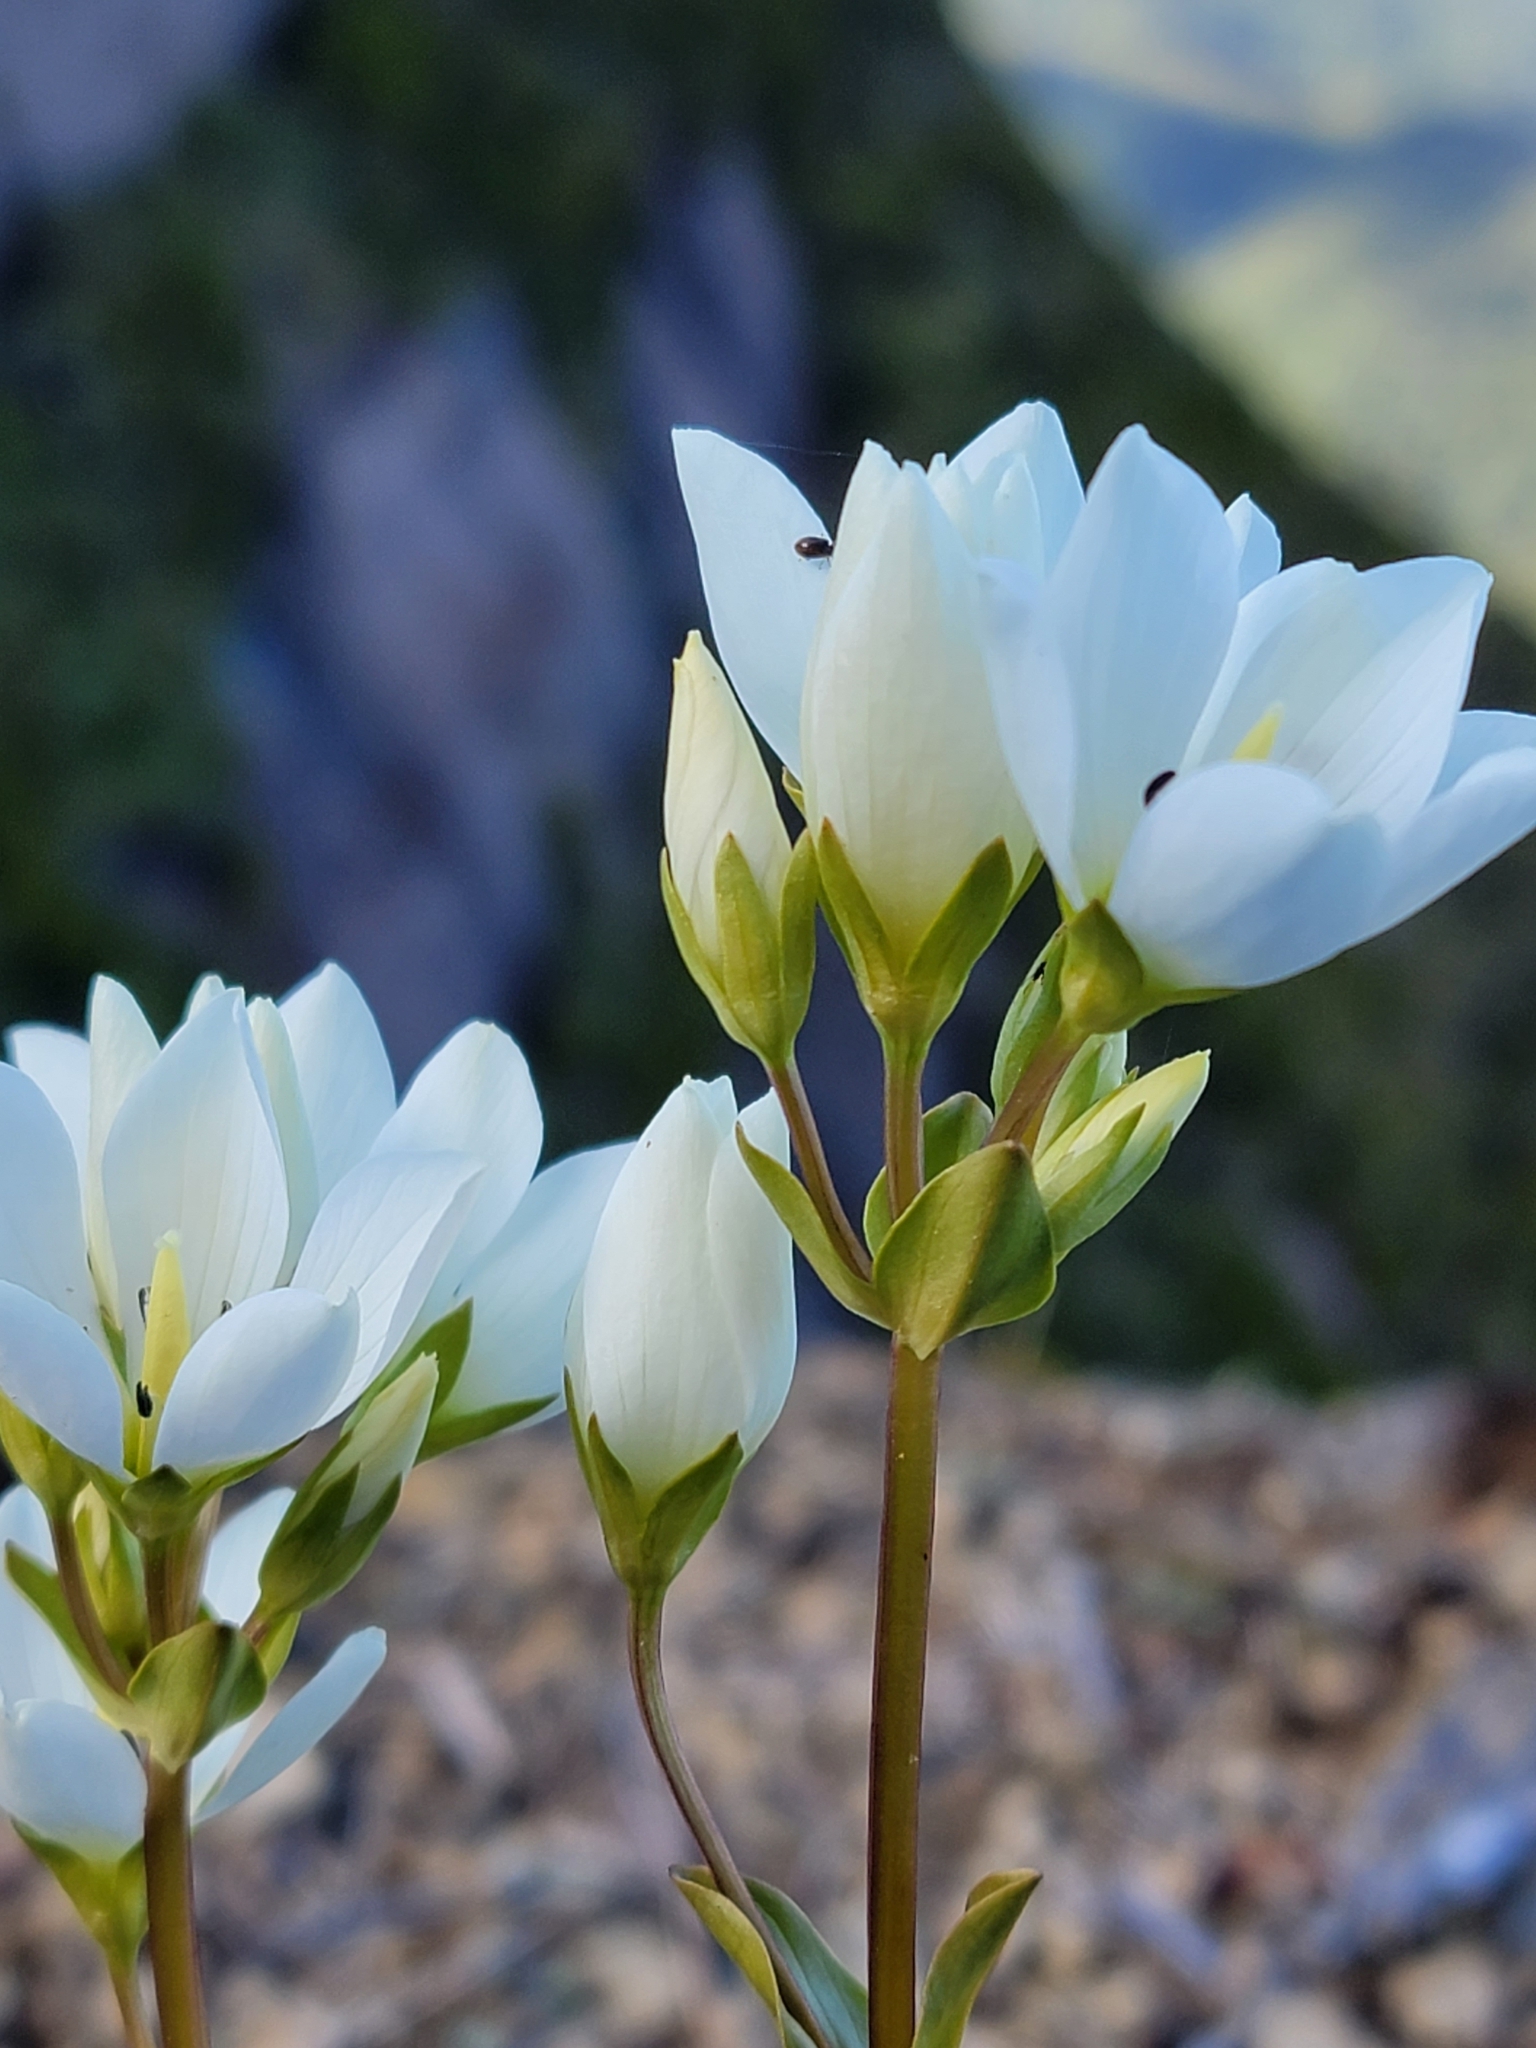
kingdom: Plantae
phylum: Tracheophyta
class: Magnoliopsida
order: Gentianales
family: Gentianaceae
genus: Gentianella
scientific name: Gentianella montana
